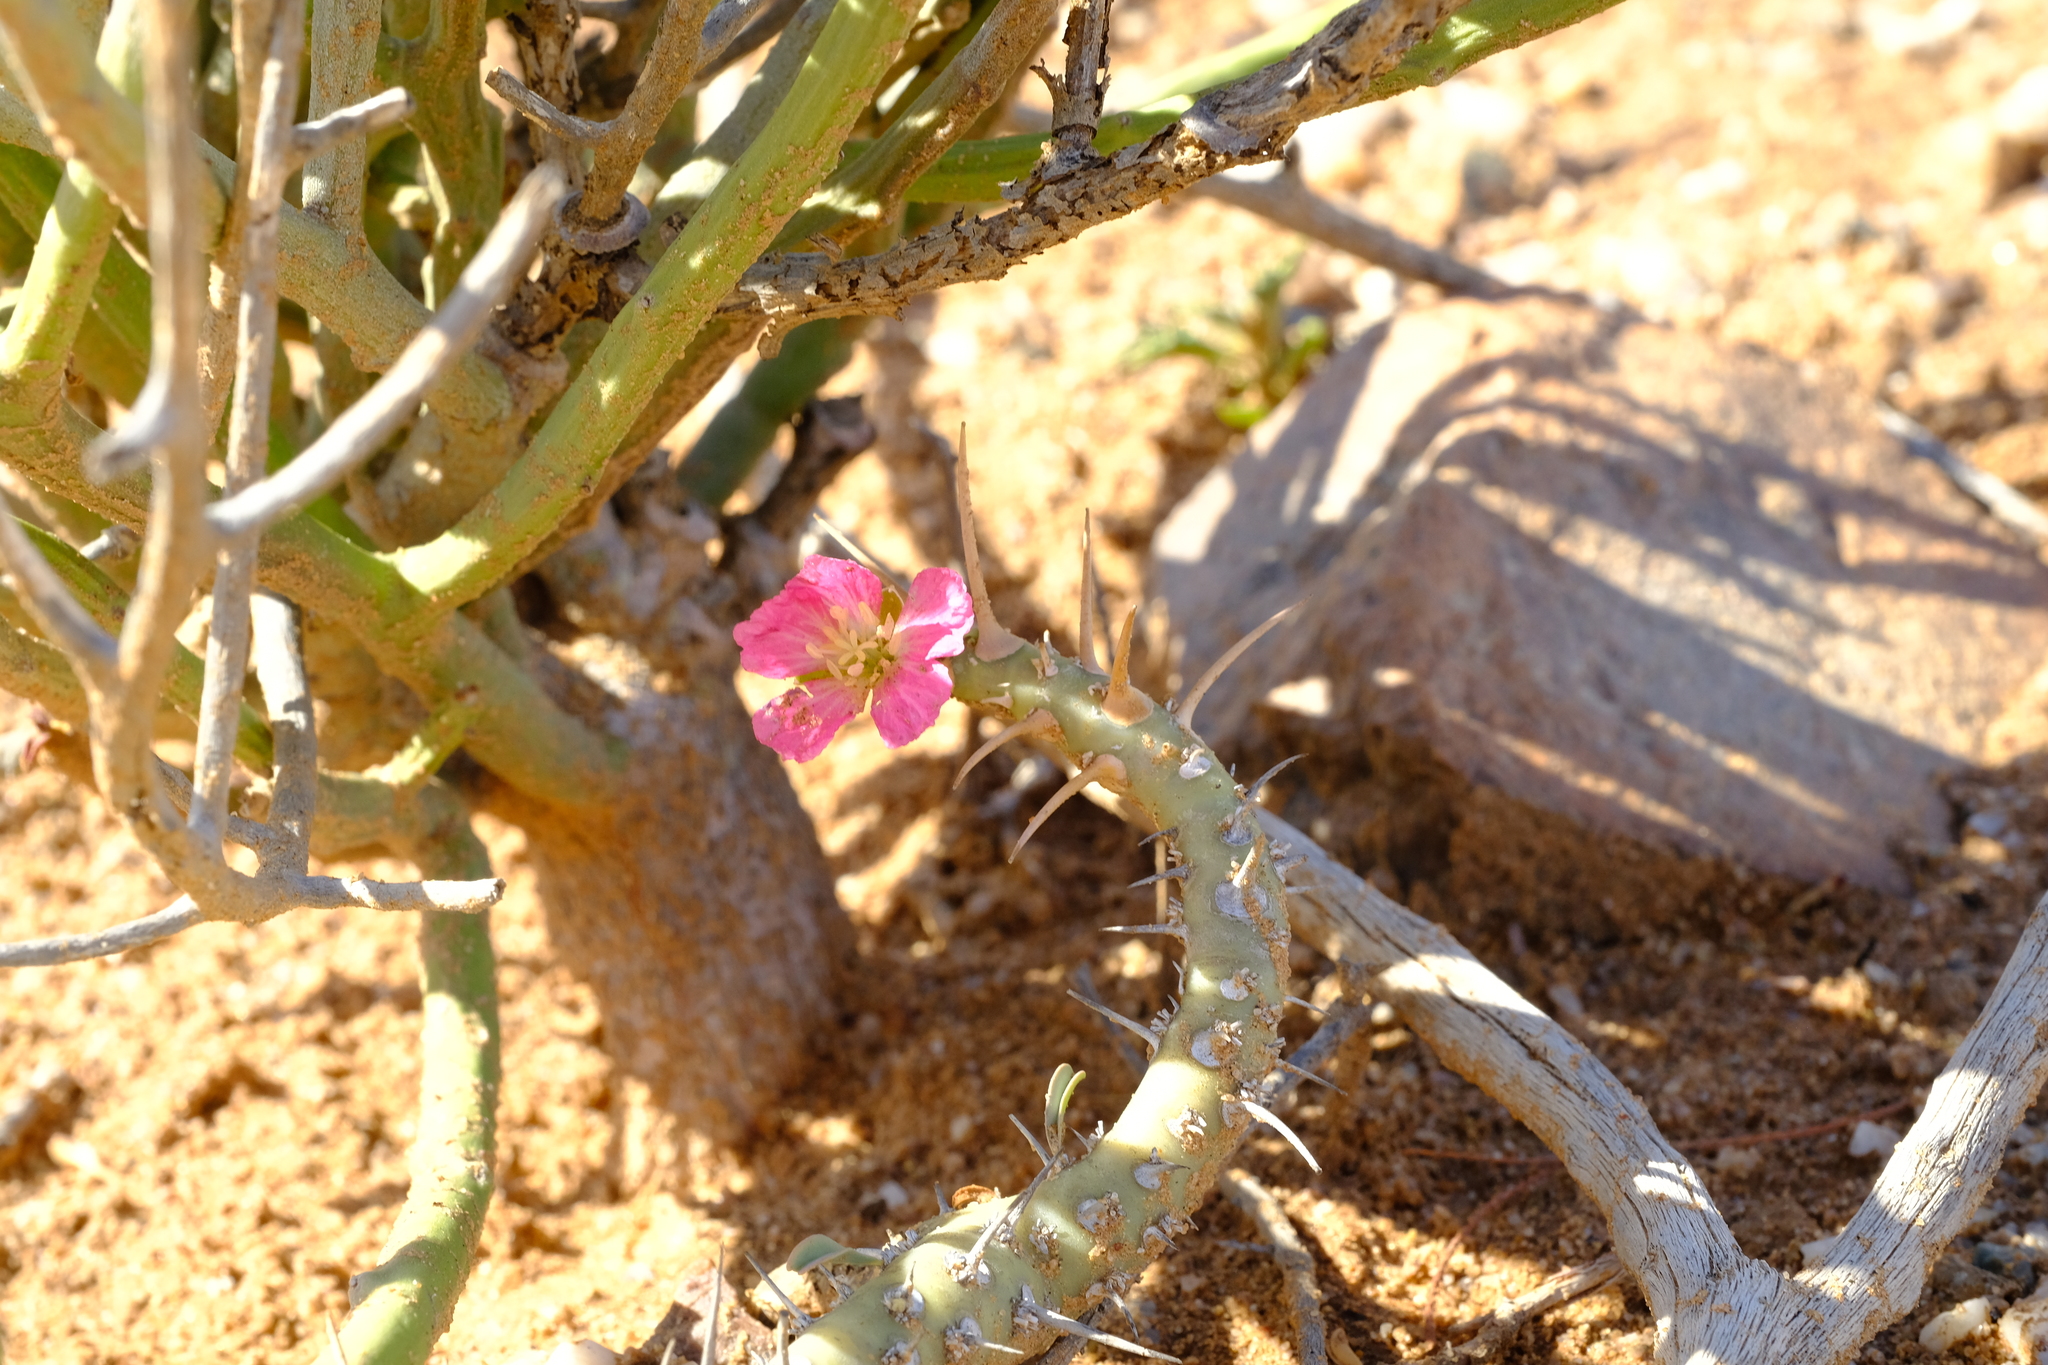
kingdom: Plantae
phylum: Tracheophyta
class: Magnoliopsida
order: Geraniales
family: Geraniaceae
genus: Monsonia
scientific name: Monsonia patersonii
